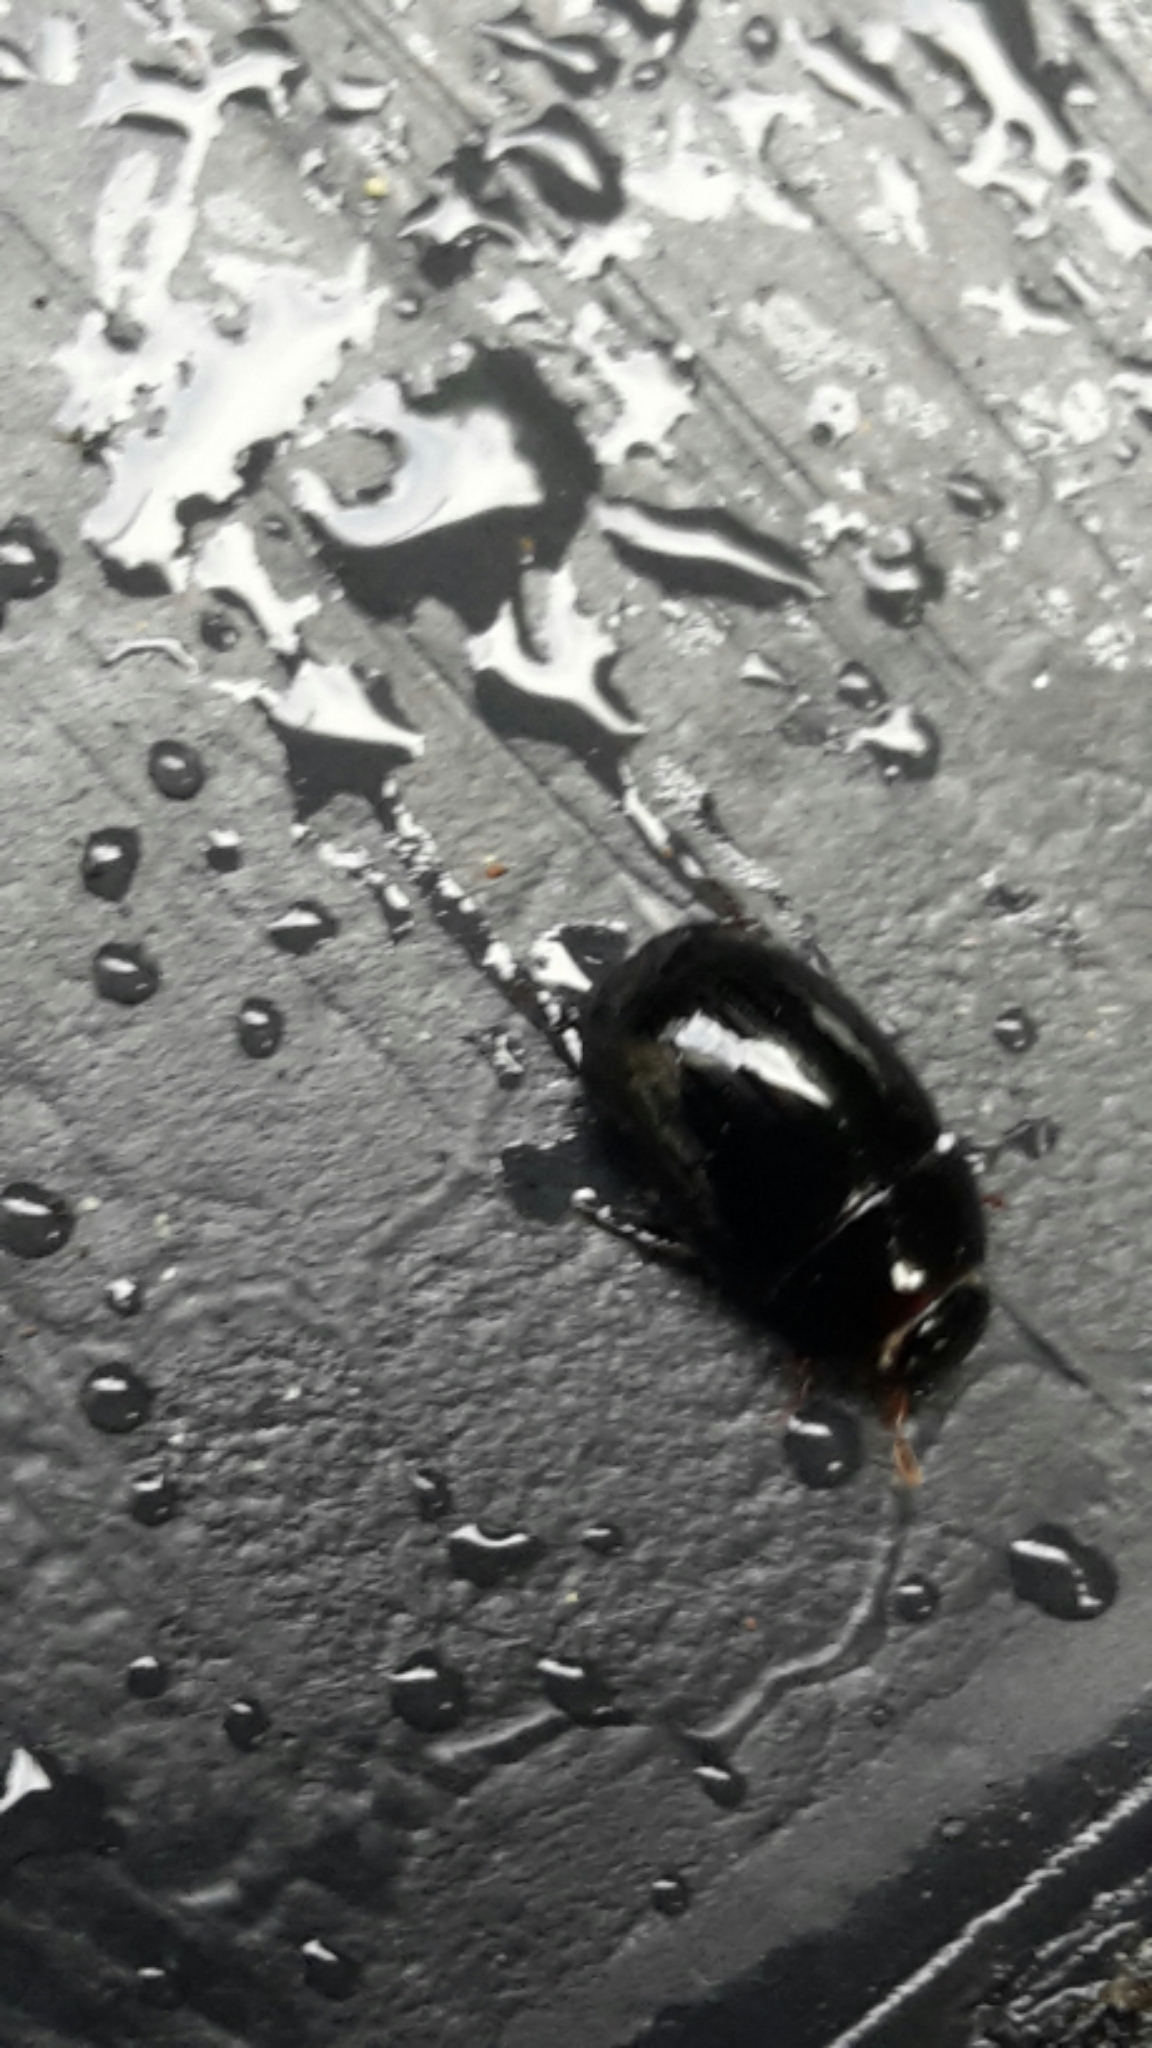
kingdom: Animalia
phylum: Arthropoda
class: Insecta
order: Coleoptera
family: Hydrophilidae
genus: Dactylosternum
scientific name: Dactylosternum abdominale
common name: Water scavenger beetle
